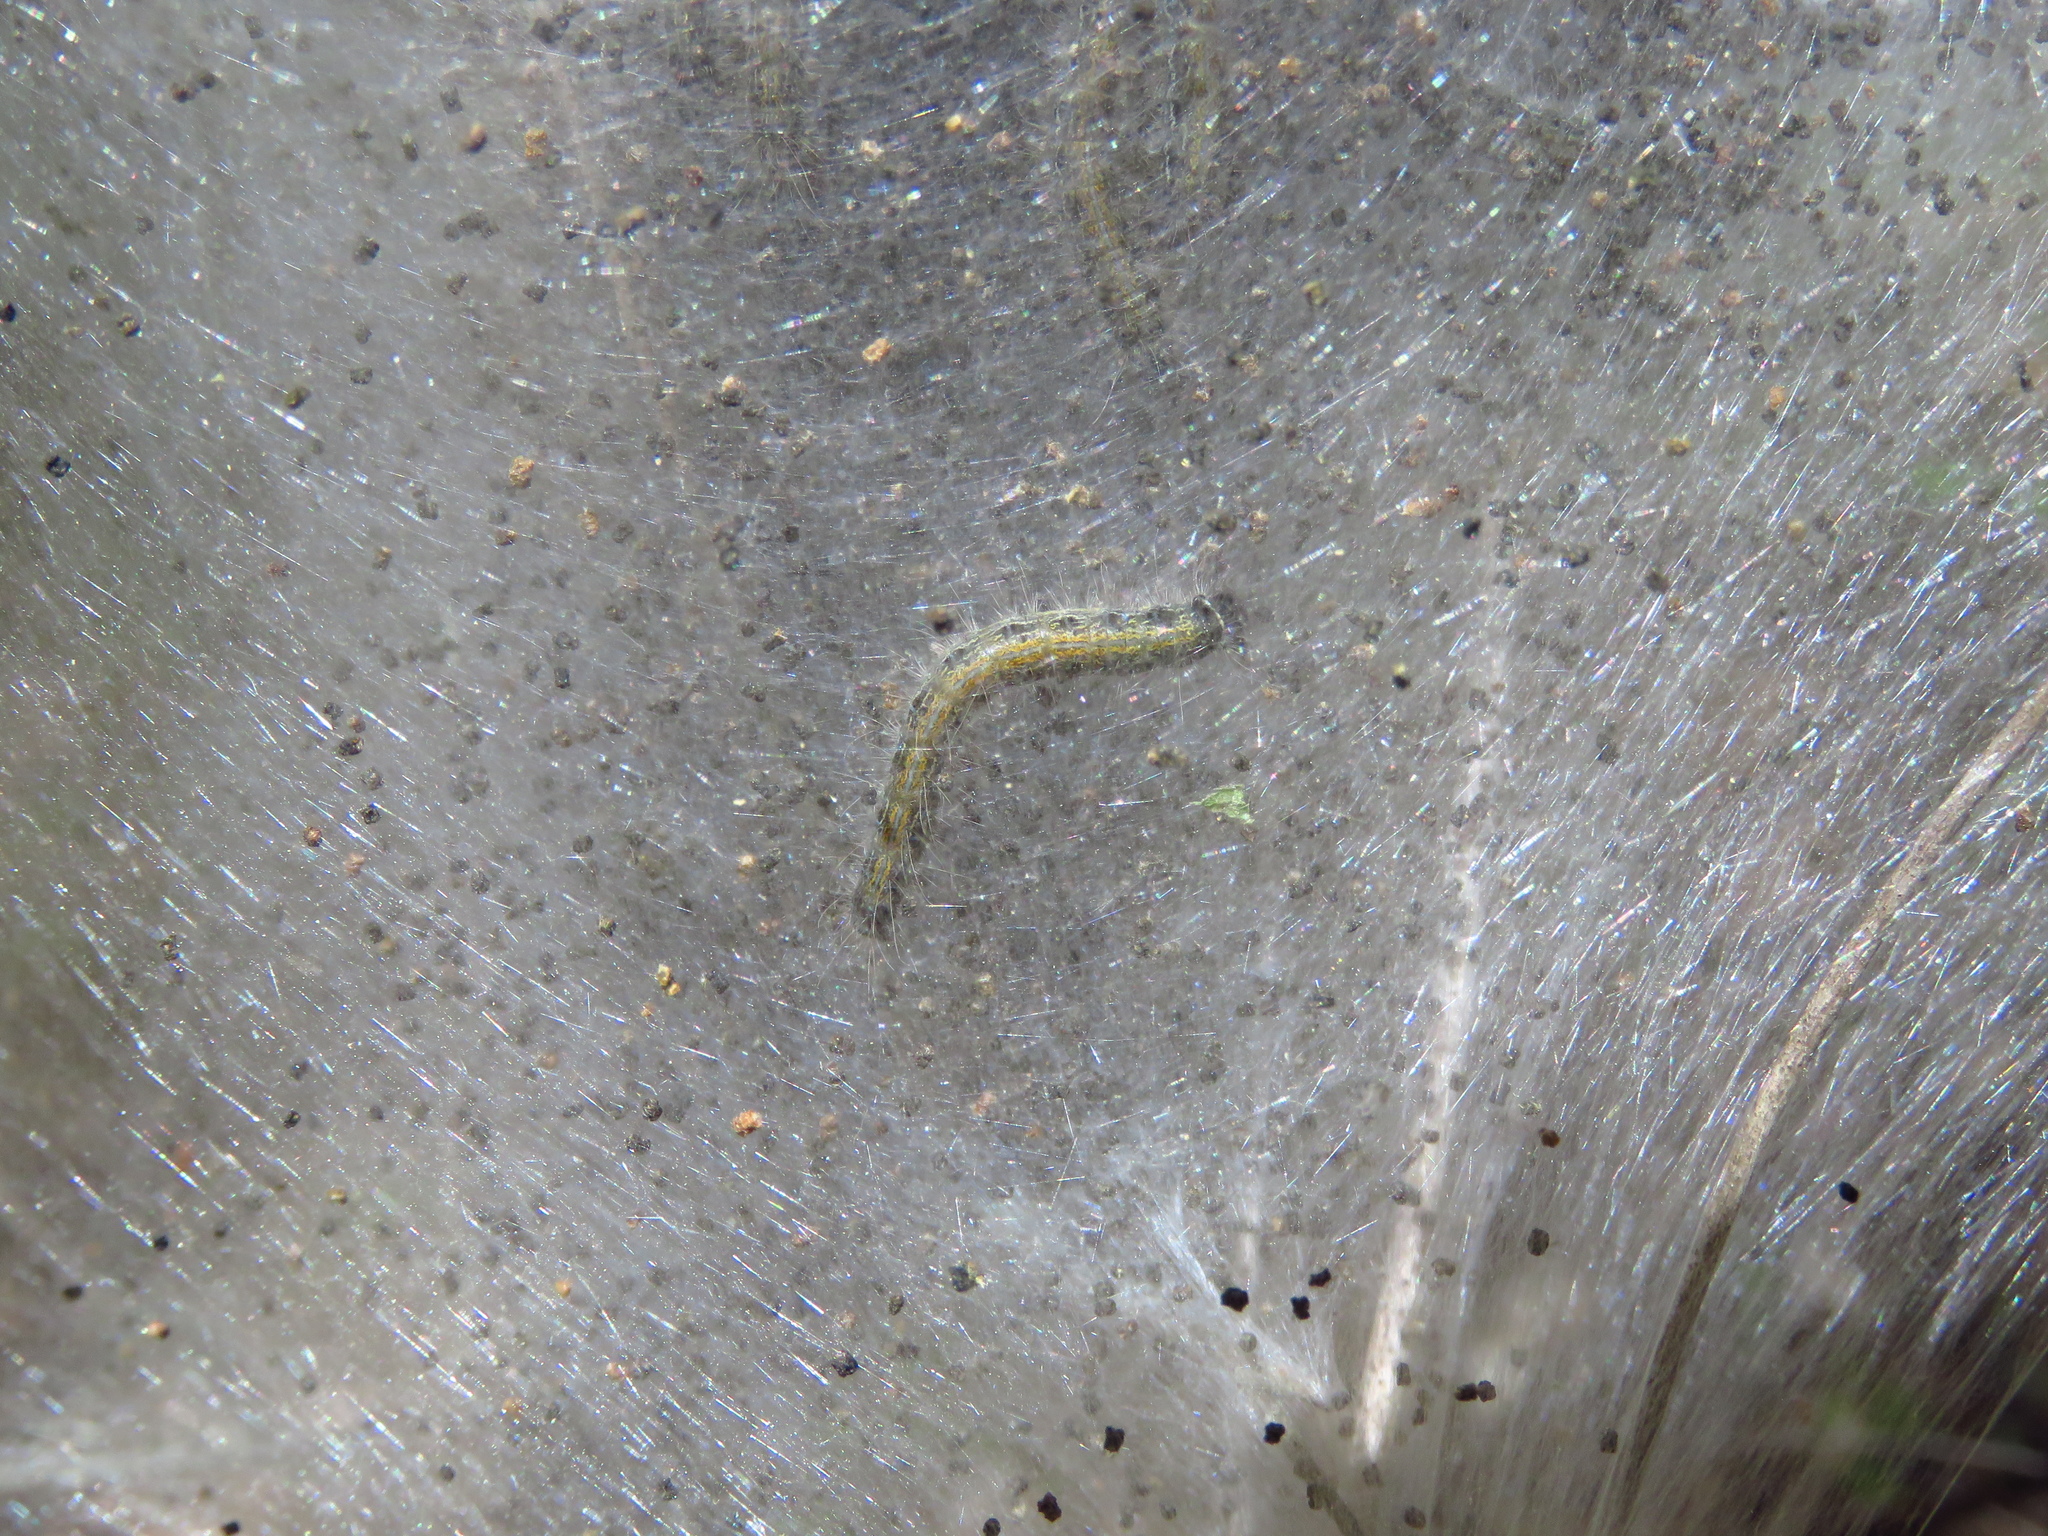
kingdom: Animalia
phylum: Arthropoda
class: Insecta
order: Lepidoptera
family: Lasiocampidae
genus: Malacosoma
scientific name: Malacosoma americana
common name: Eastern tent caterpillar moth
